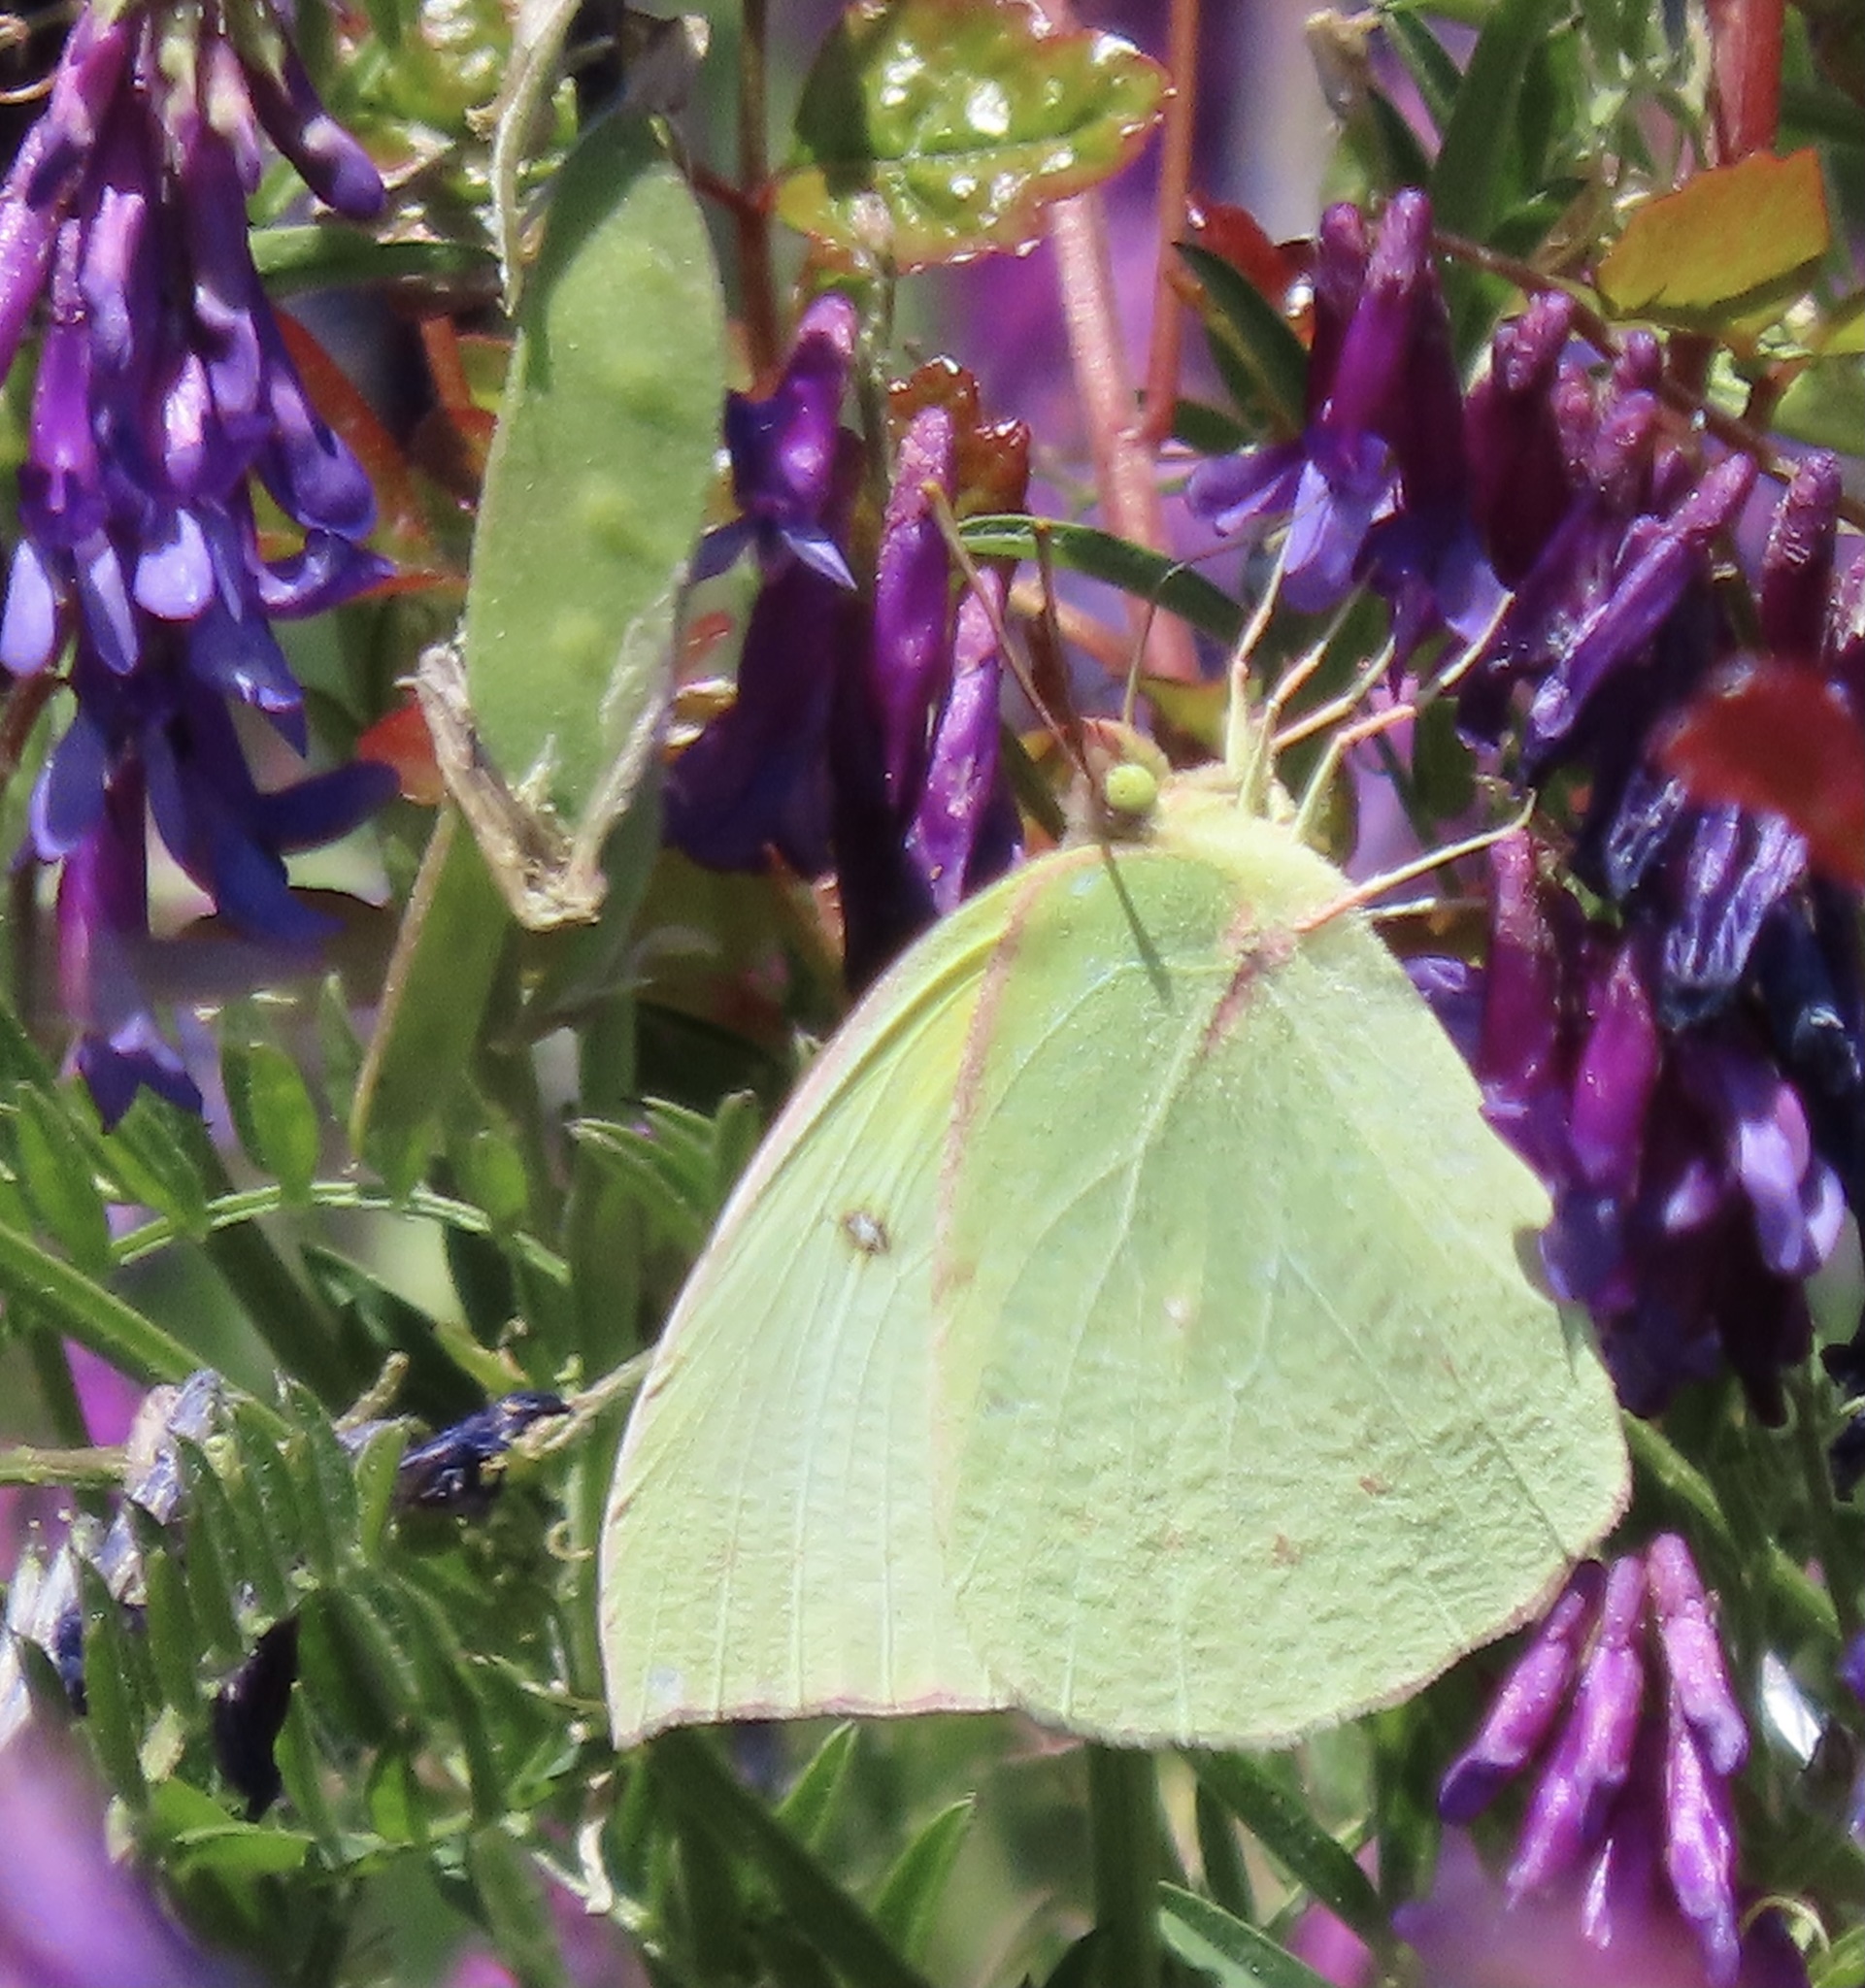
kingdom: Animalia
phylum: Arthropoda
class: Insecta
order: Lepidoptera
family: Pieridae
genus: Zerene
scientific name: Zerene eurydice
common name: California dogface
